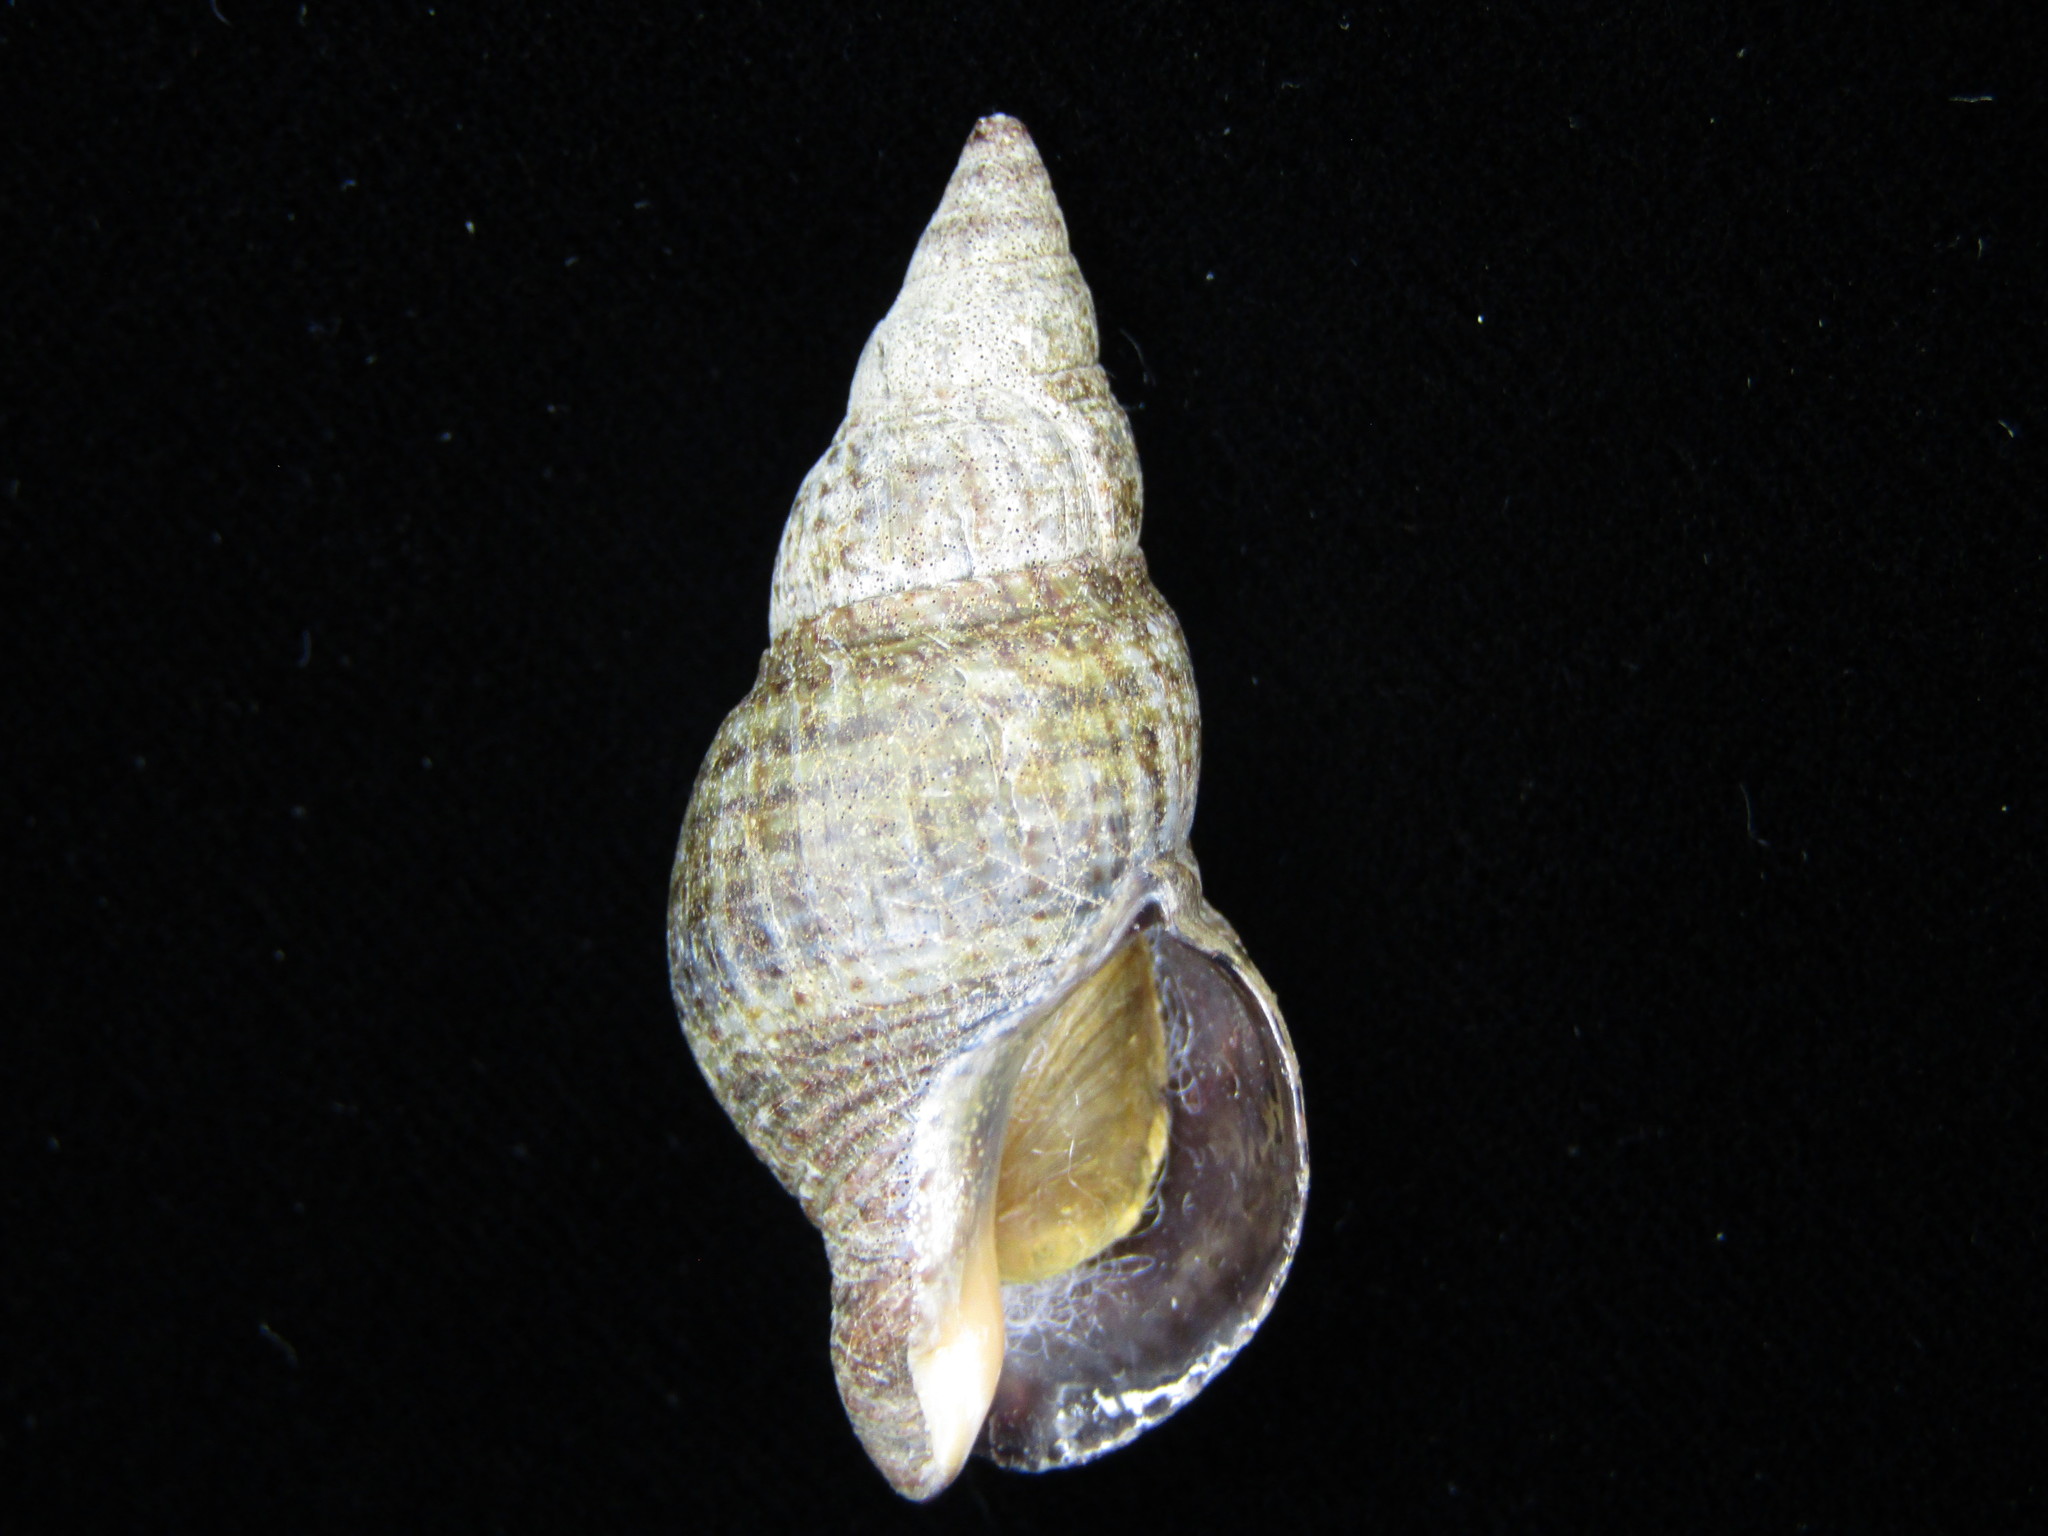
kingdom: Animalia
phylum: Mollusca
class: Gastropoda
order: Neogastropoda
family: Buccinidae
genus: Japeuthria
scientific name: Japeuthria ferrea
